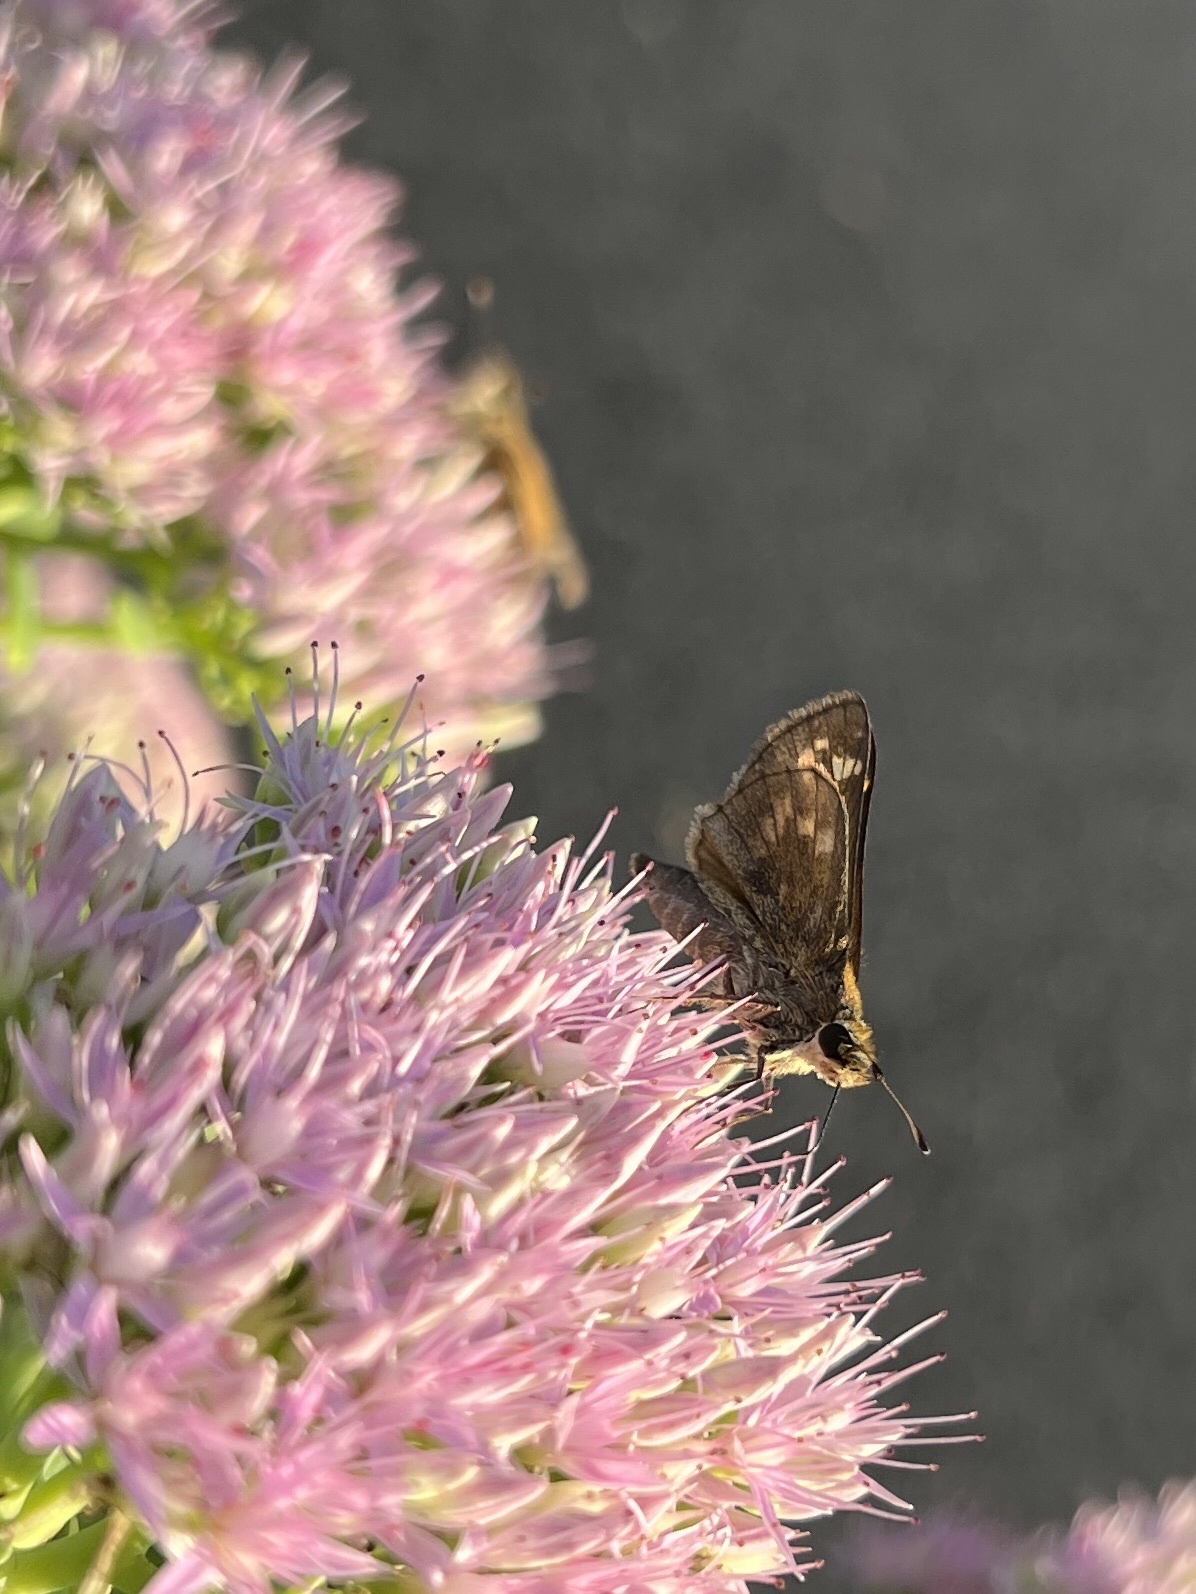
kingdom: Animalia
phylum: Arthropoda
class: Insecta
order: Lepidoptera
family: Hesperiidae
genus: Atalopedes
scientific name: Atalopedes
